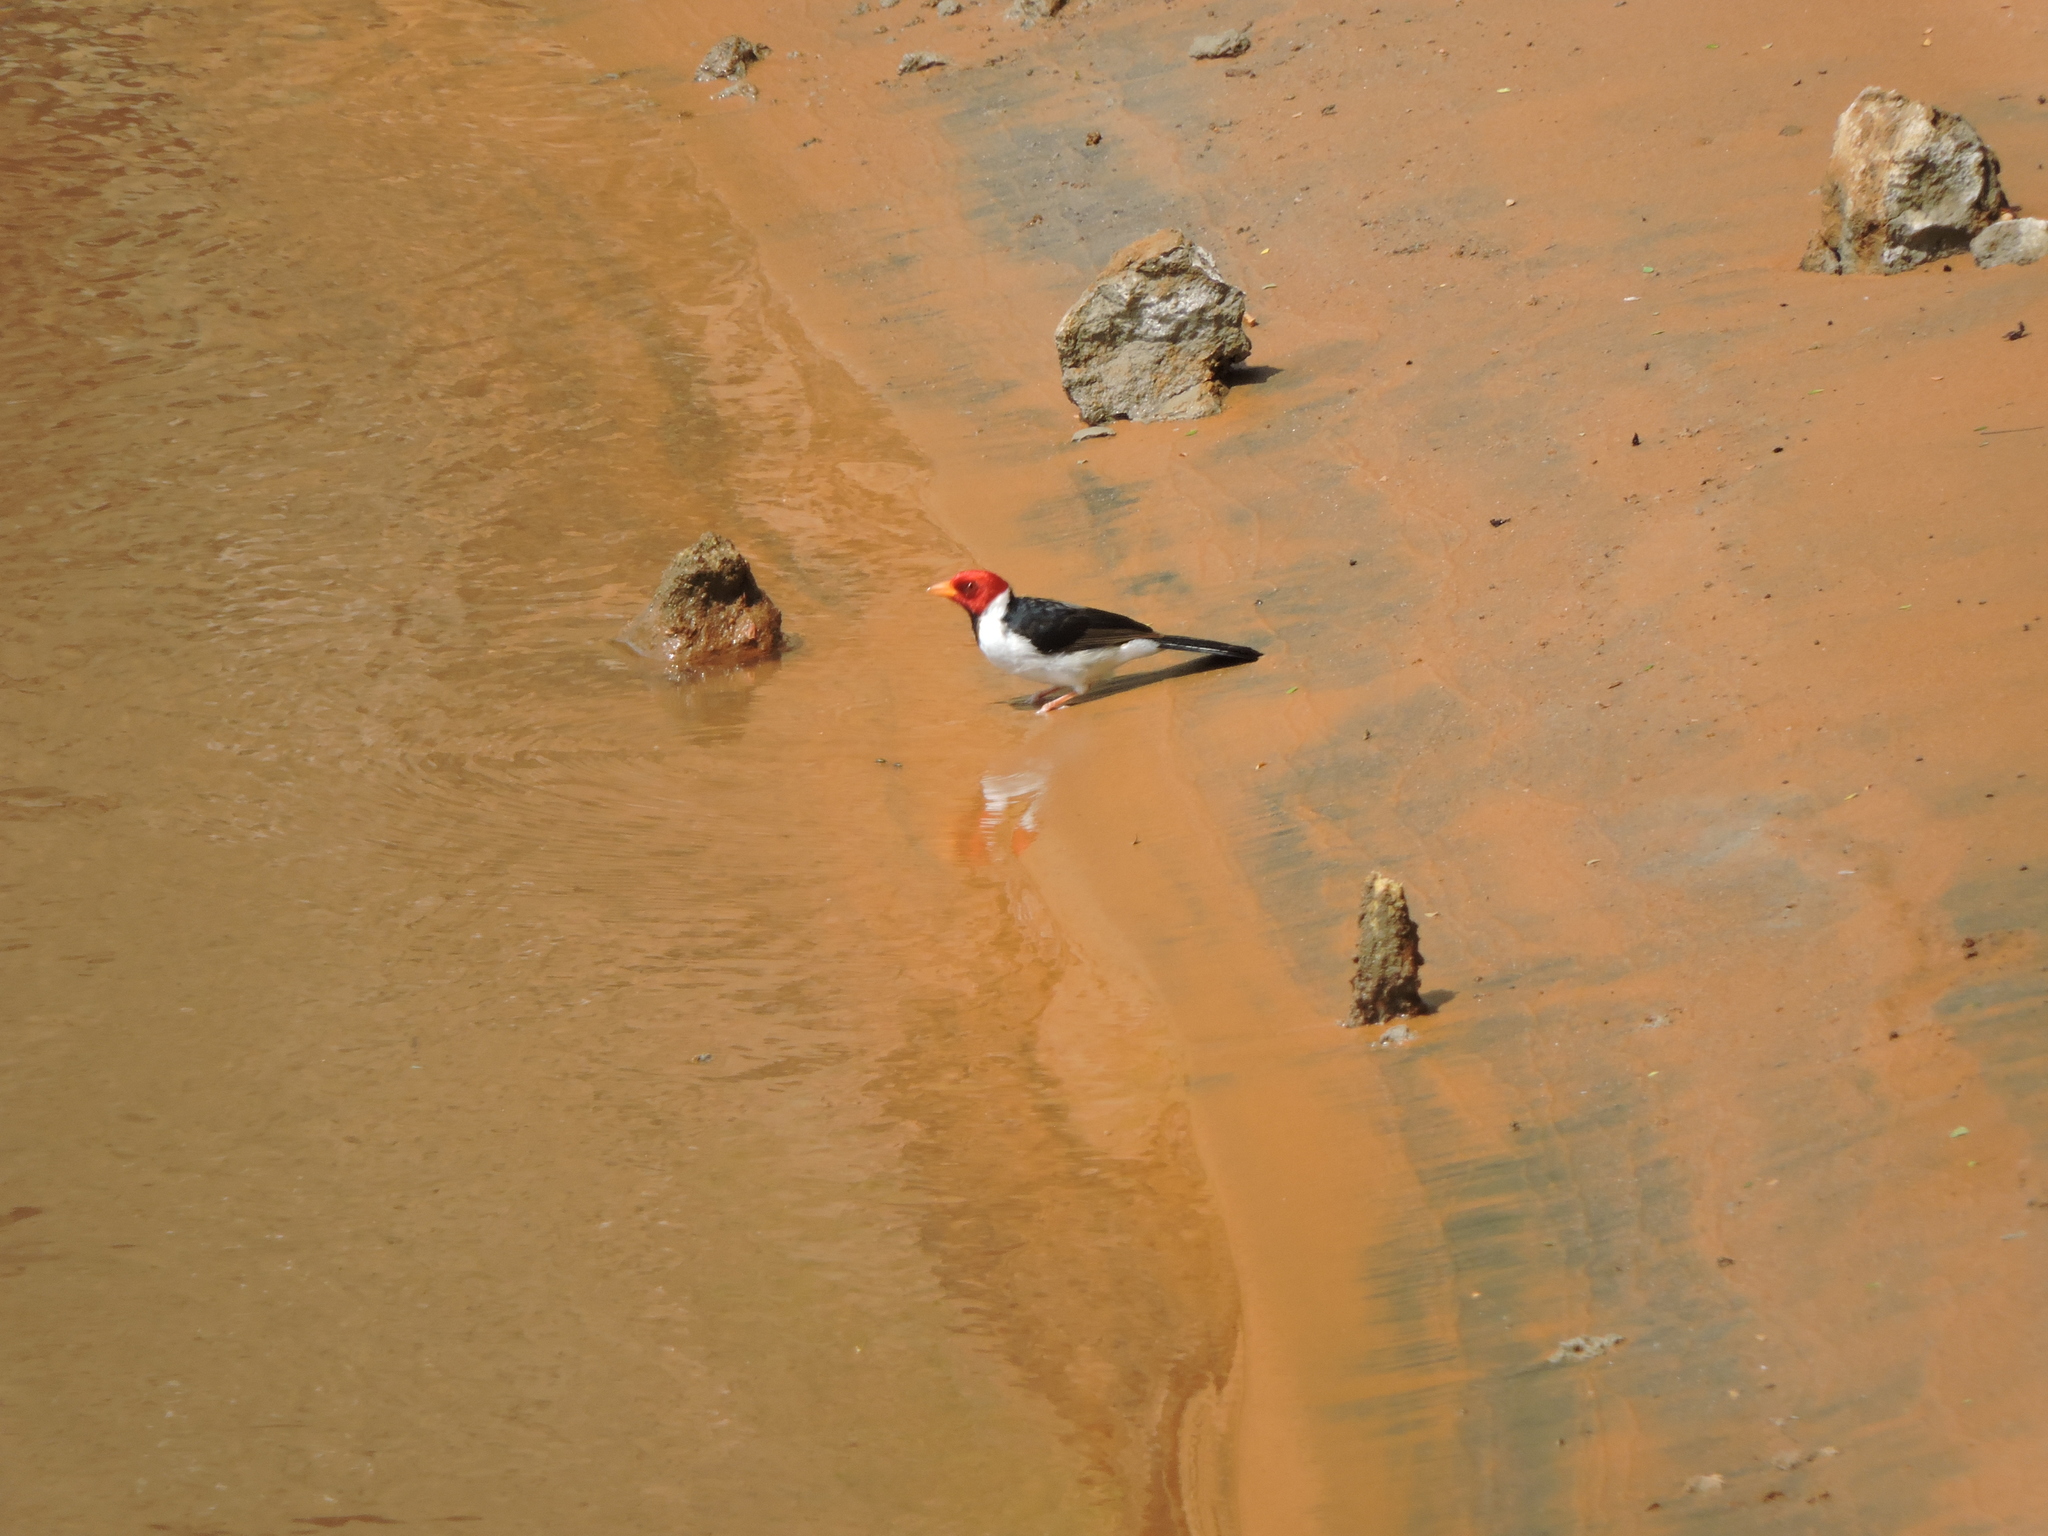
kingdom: Animalia
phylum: Chordata
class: Aves
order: Passeriformes
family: Thraupidae
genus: Paroaria
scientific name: Paroaria capitata
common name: Yellow-billed cardinal
